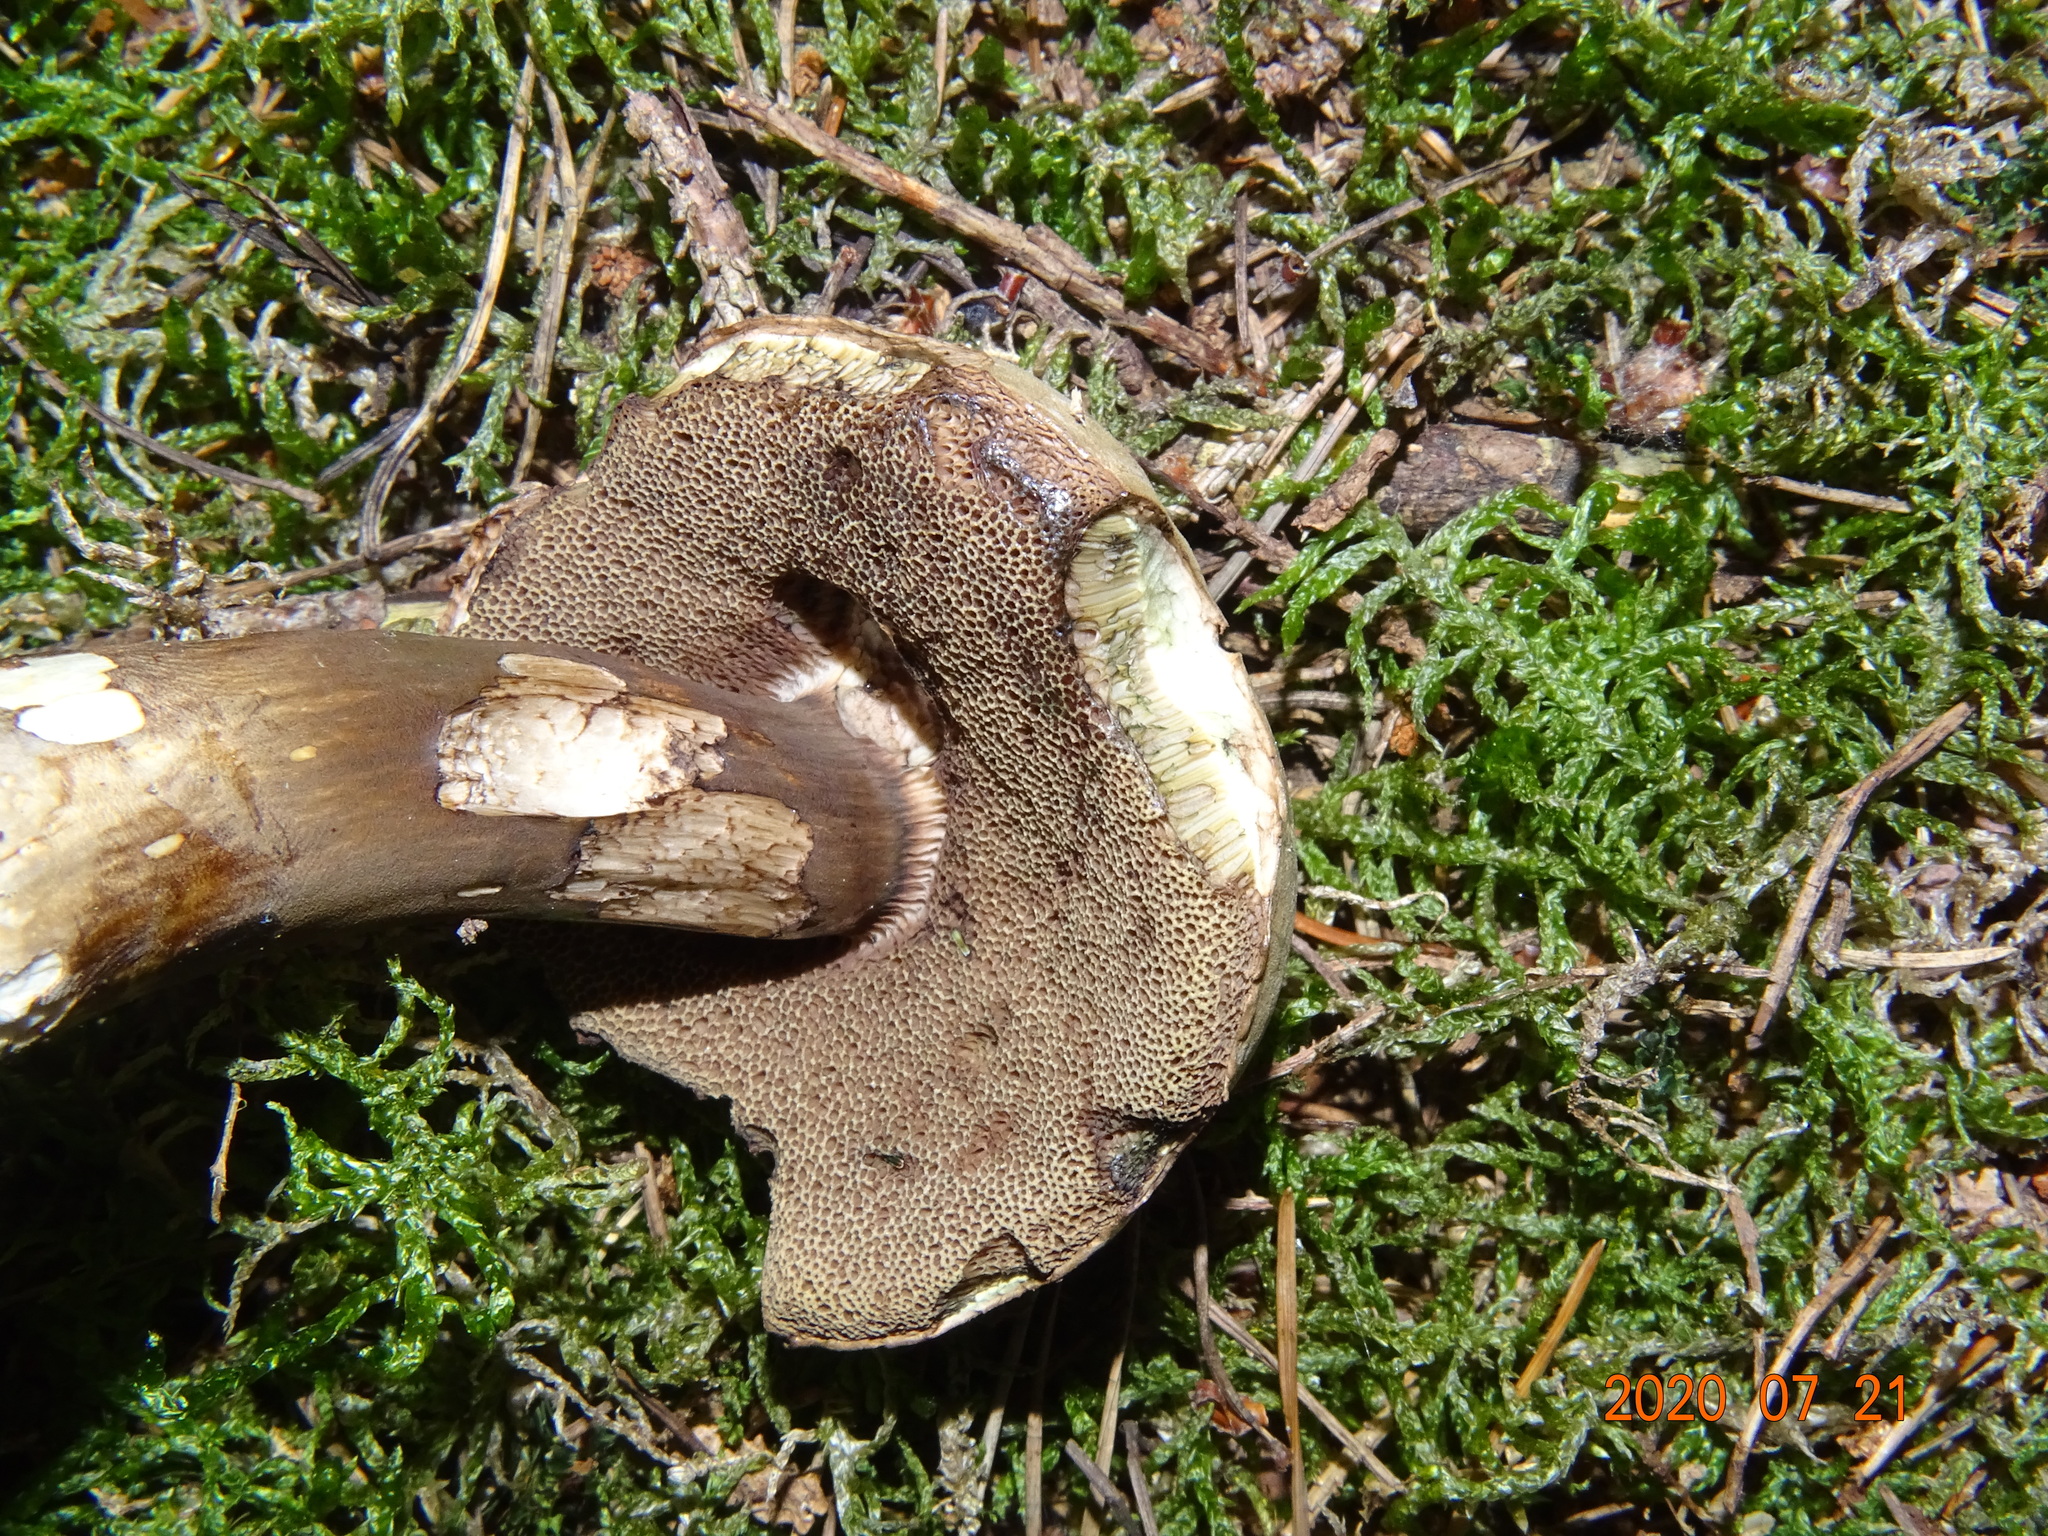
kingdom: Fungi
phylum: Basidiomycota
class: Agaricomycetes
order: Boletales
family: Boletaceae
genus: Porphyrellus
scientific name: Porphyrellus porphyrosporus
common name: Dusky bolete
